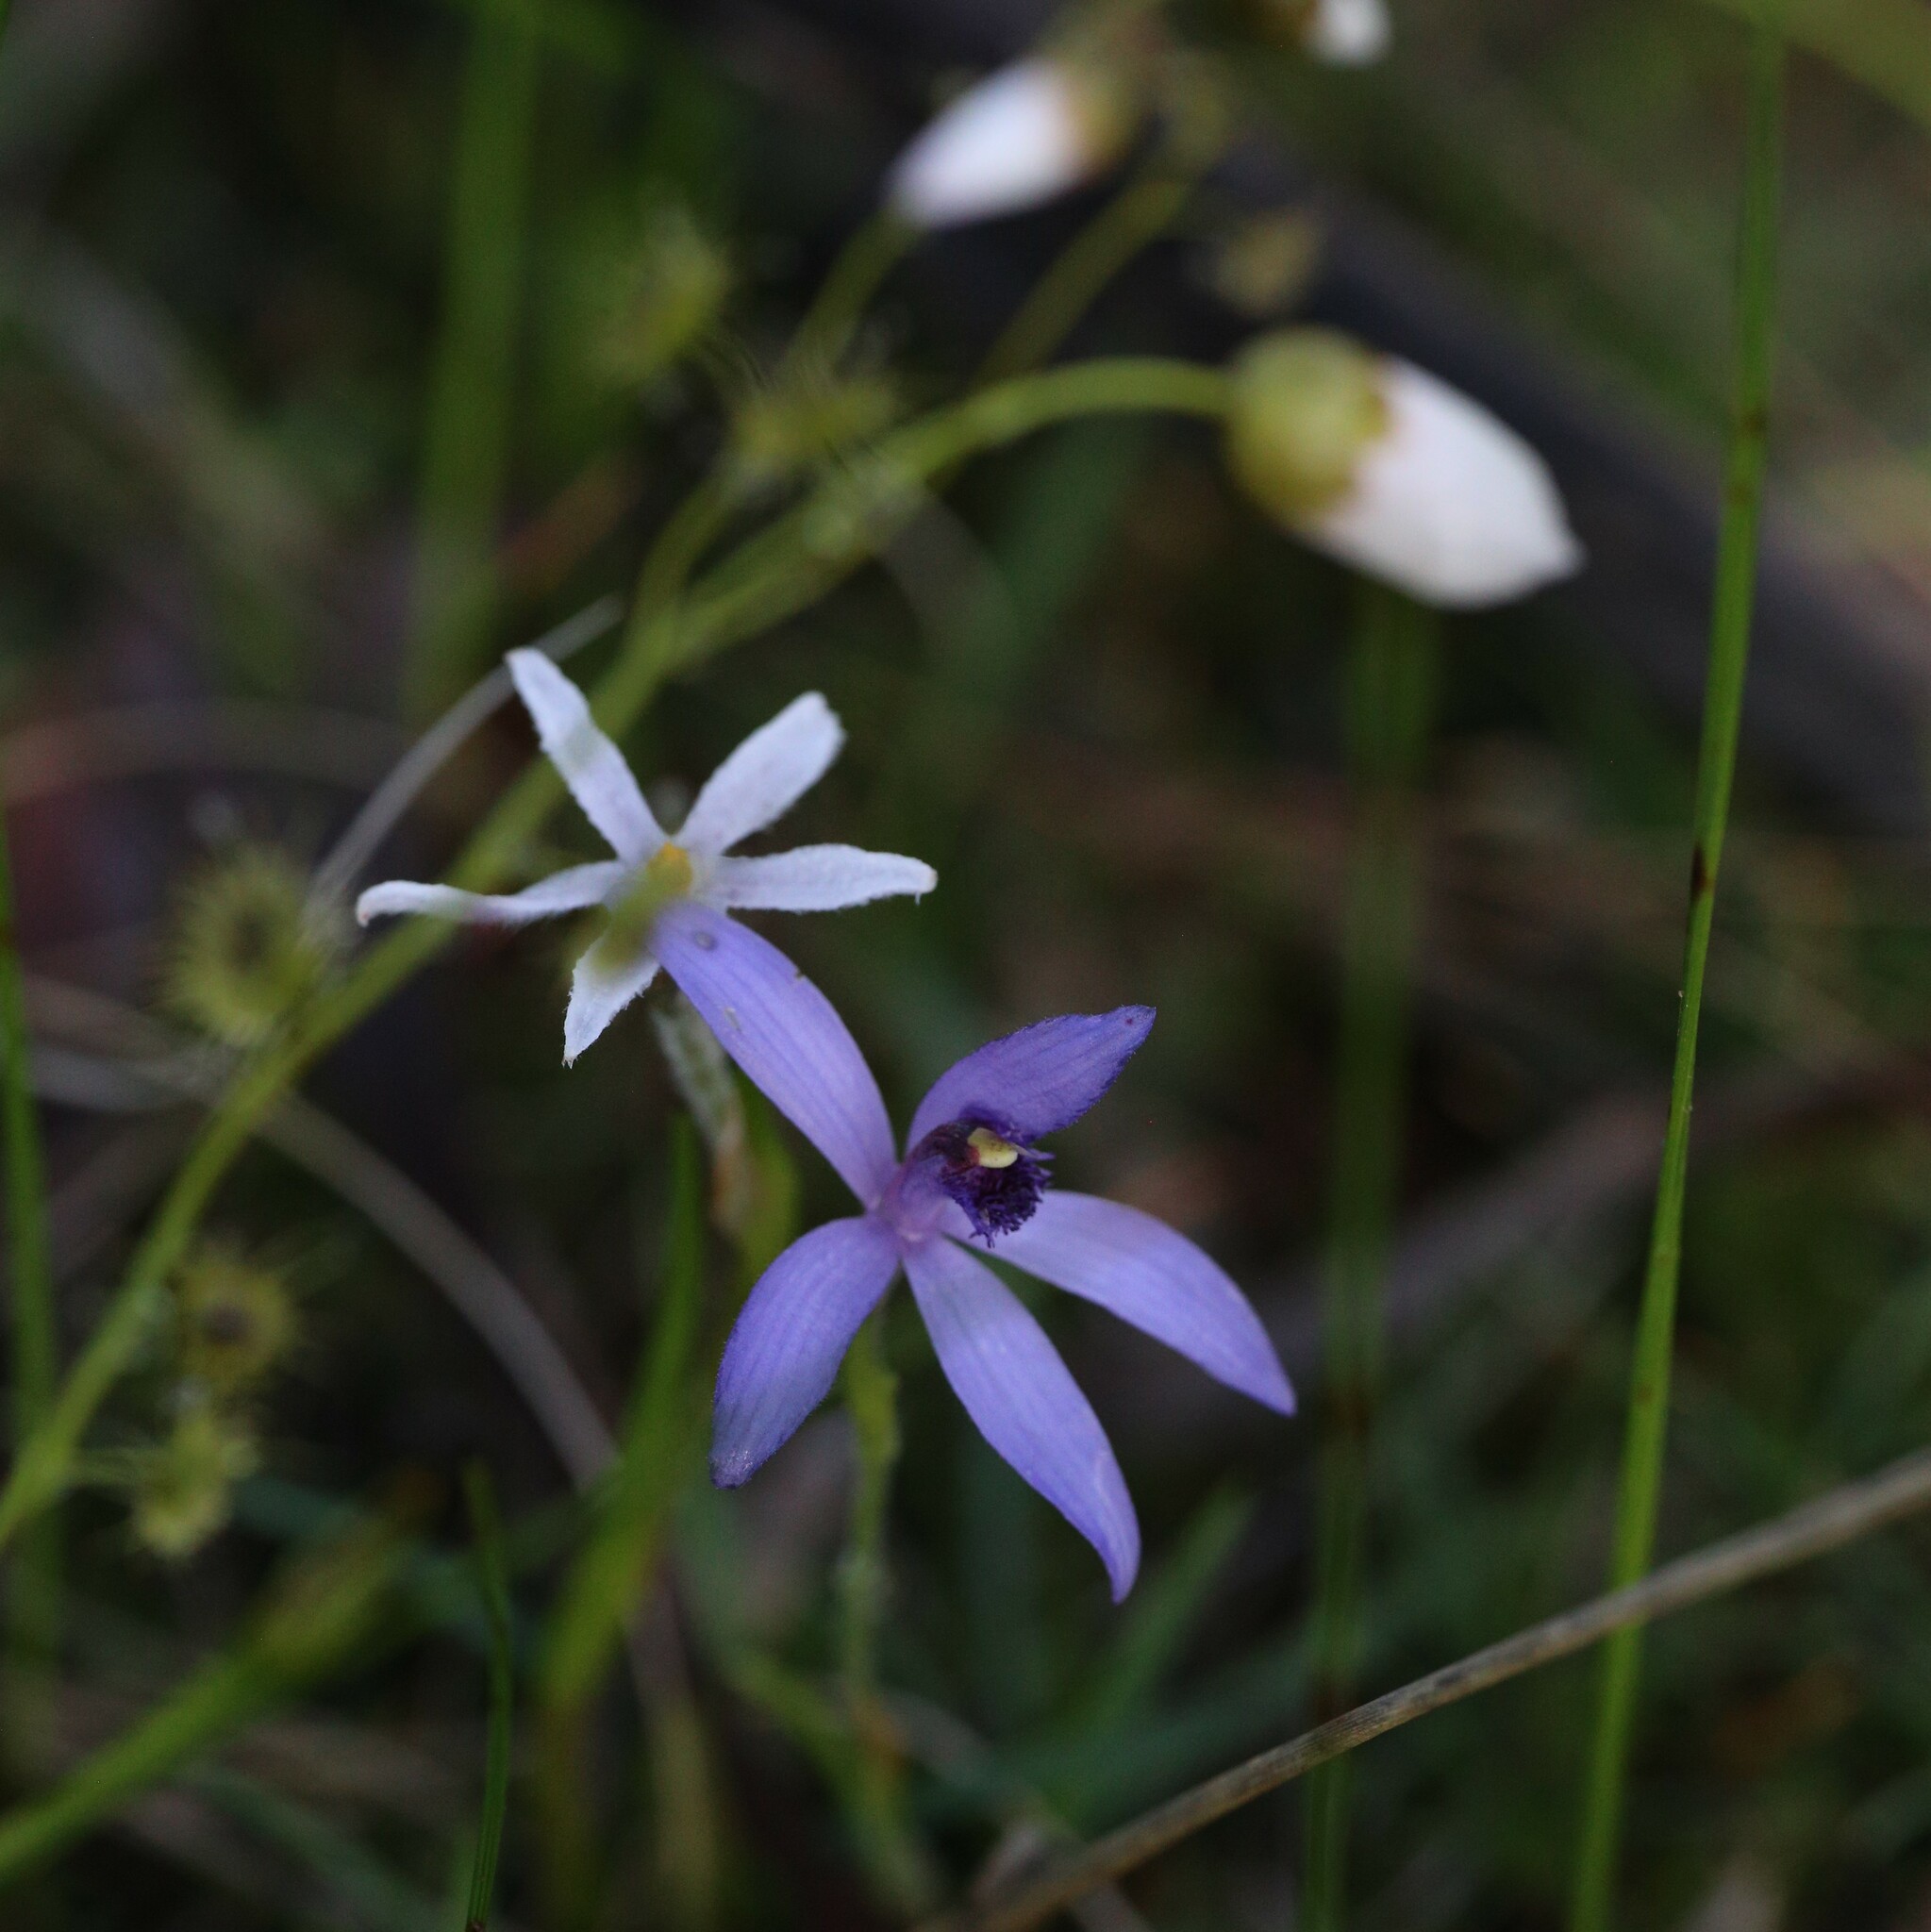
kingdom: Plantae
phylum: Tracheophyta
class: Liliopsida
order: Asparagales
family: Orchidaceae
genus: Pheladenia
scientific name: Pheladenia deformis
